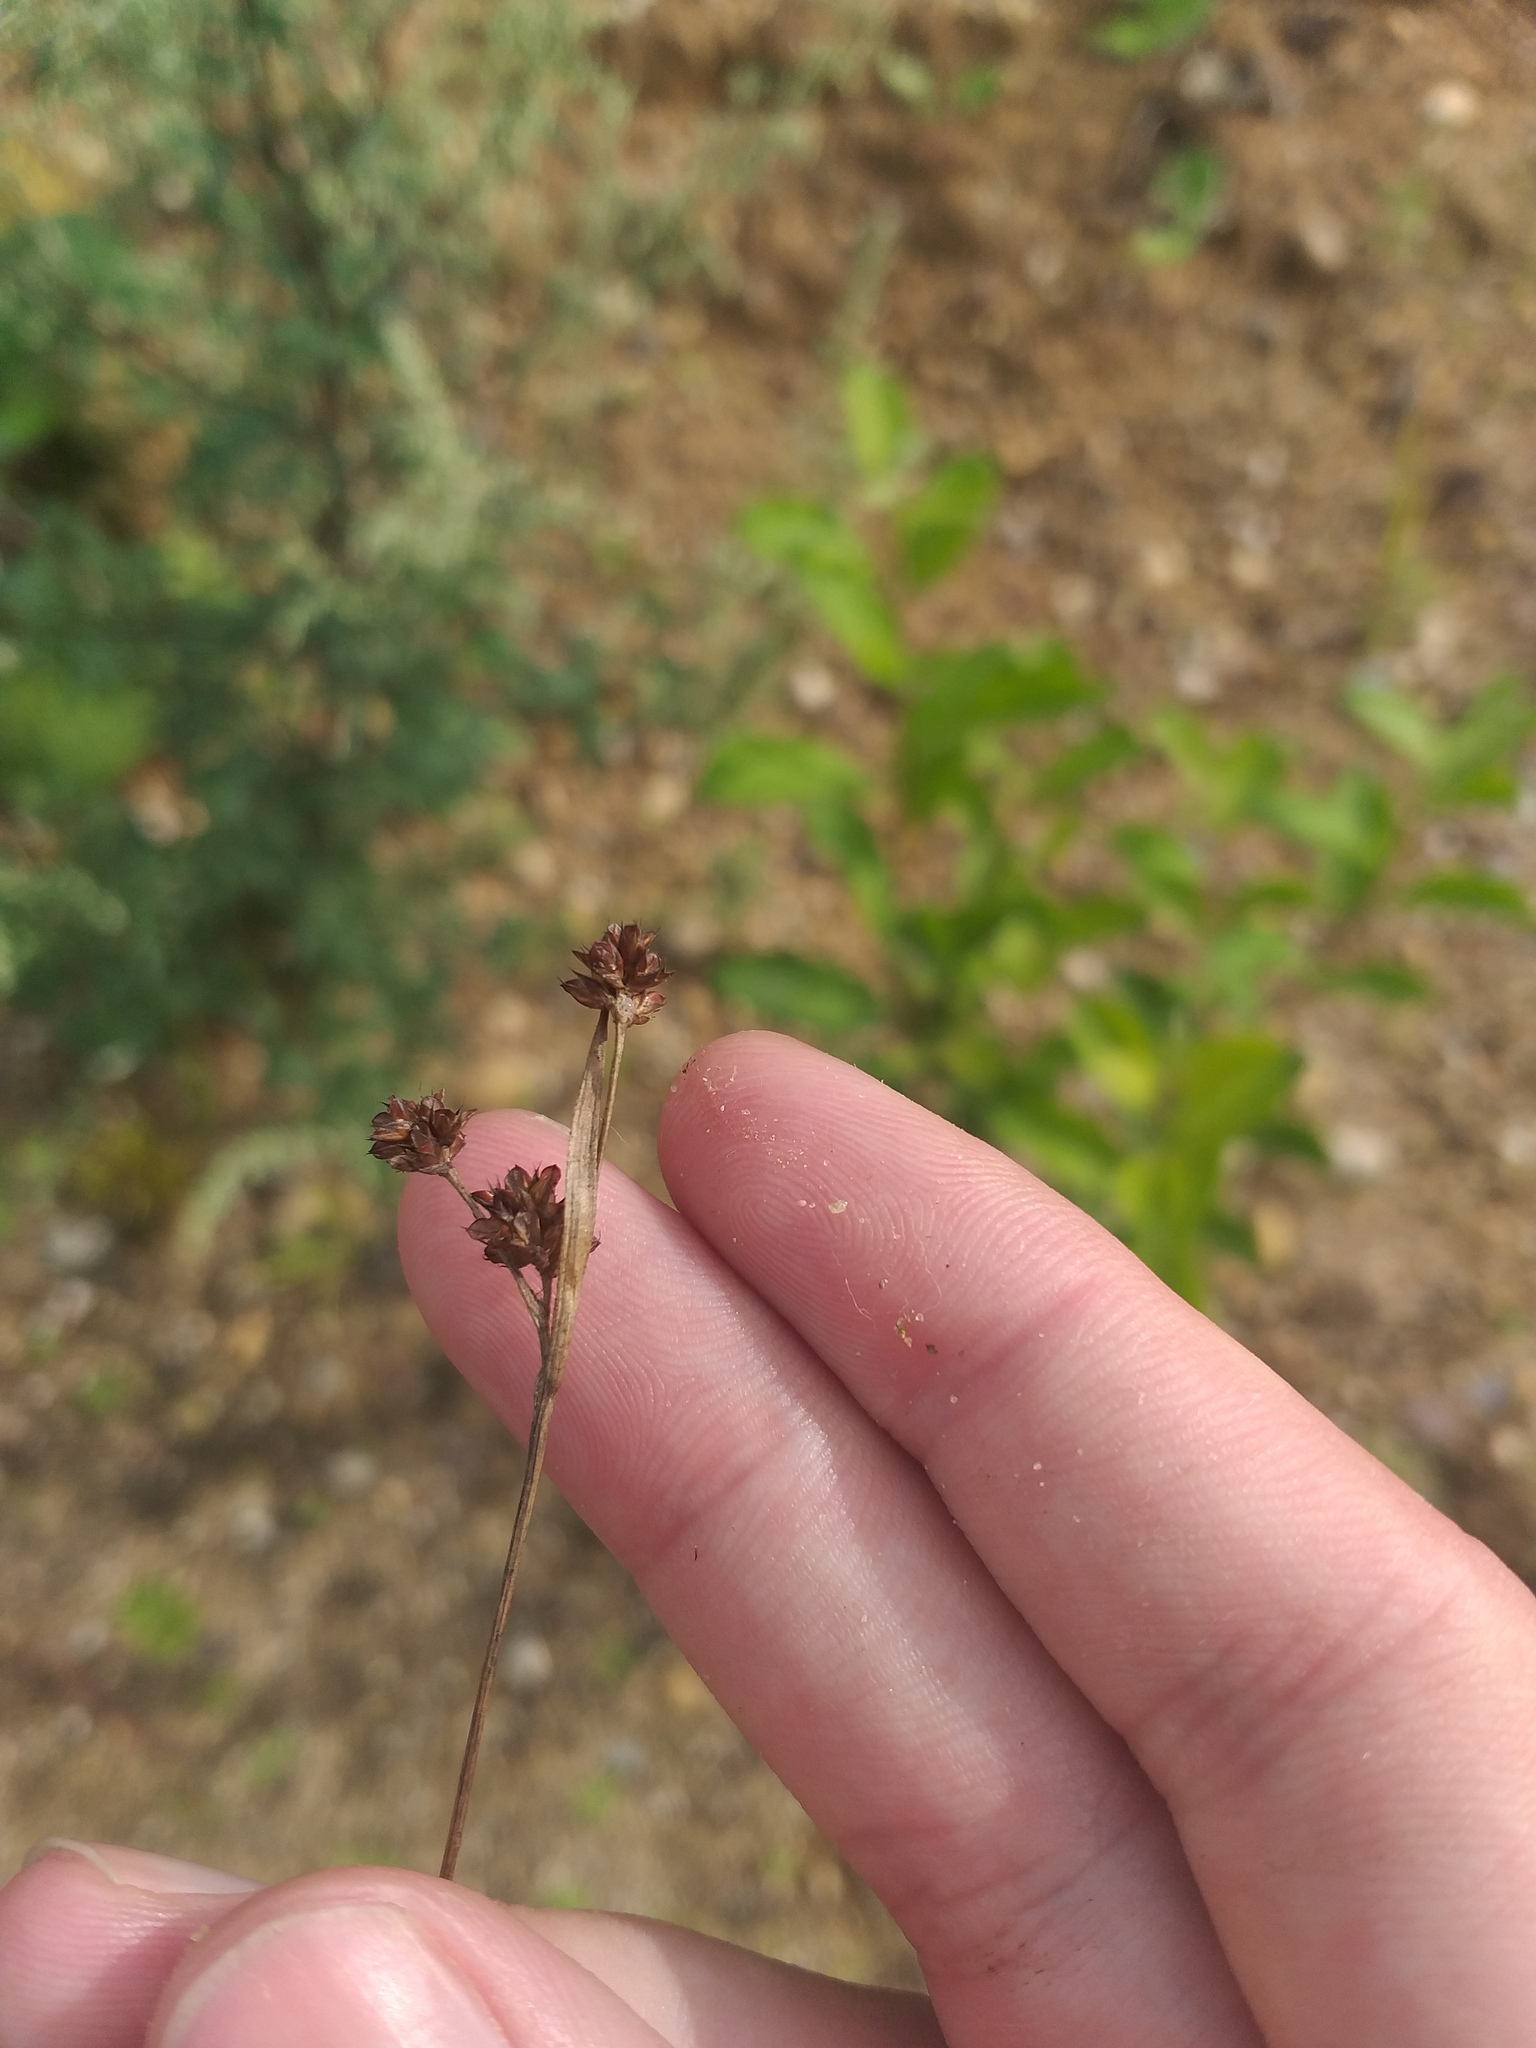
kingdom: Plantae
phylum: Tracheophyta
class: Liliopsida
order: Poales
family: Juncaceae
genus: Luzula
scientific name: Luzula multiflora
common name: Heath wood-rush
